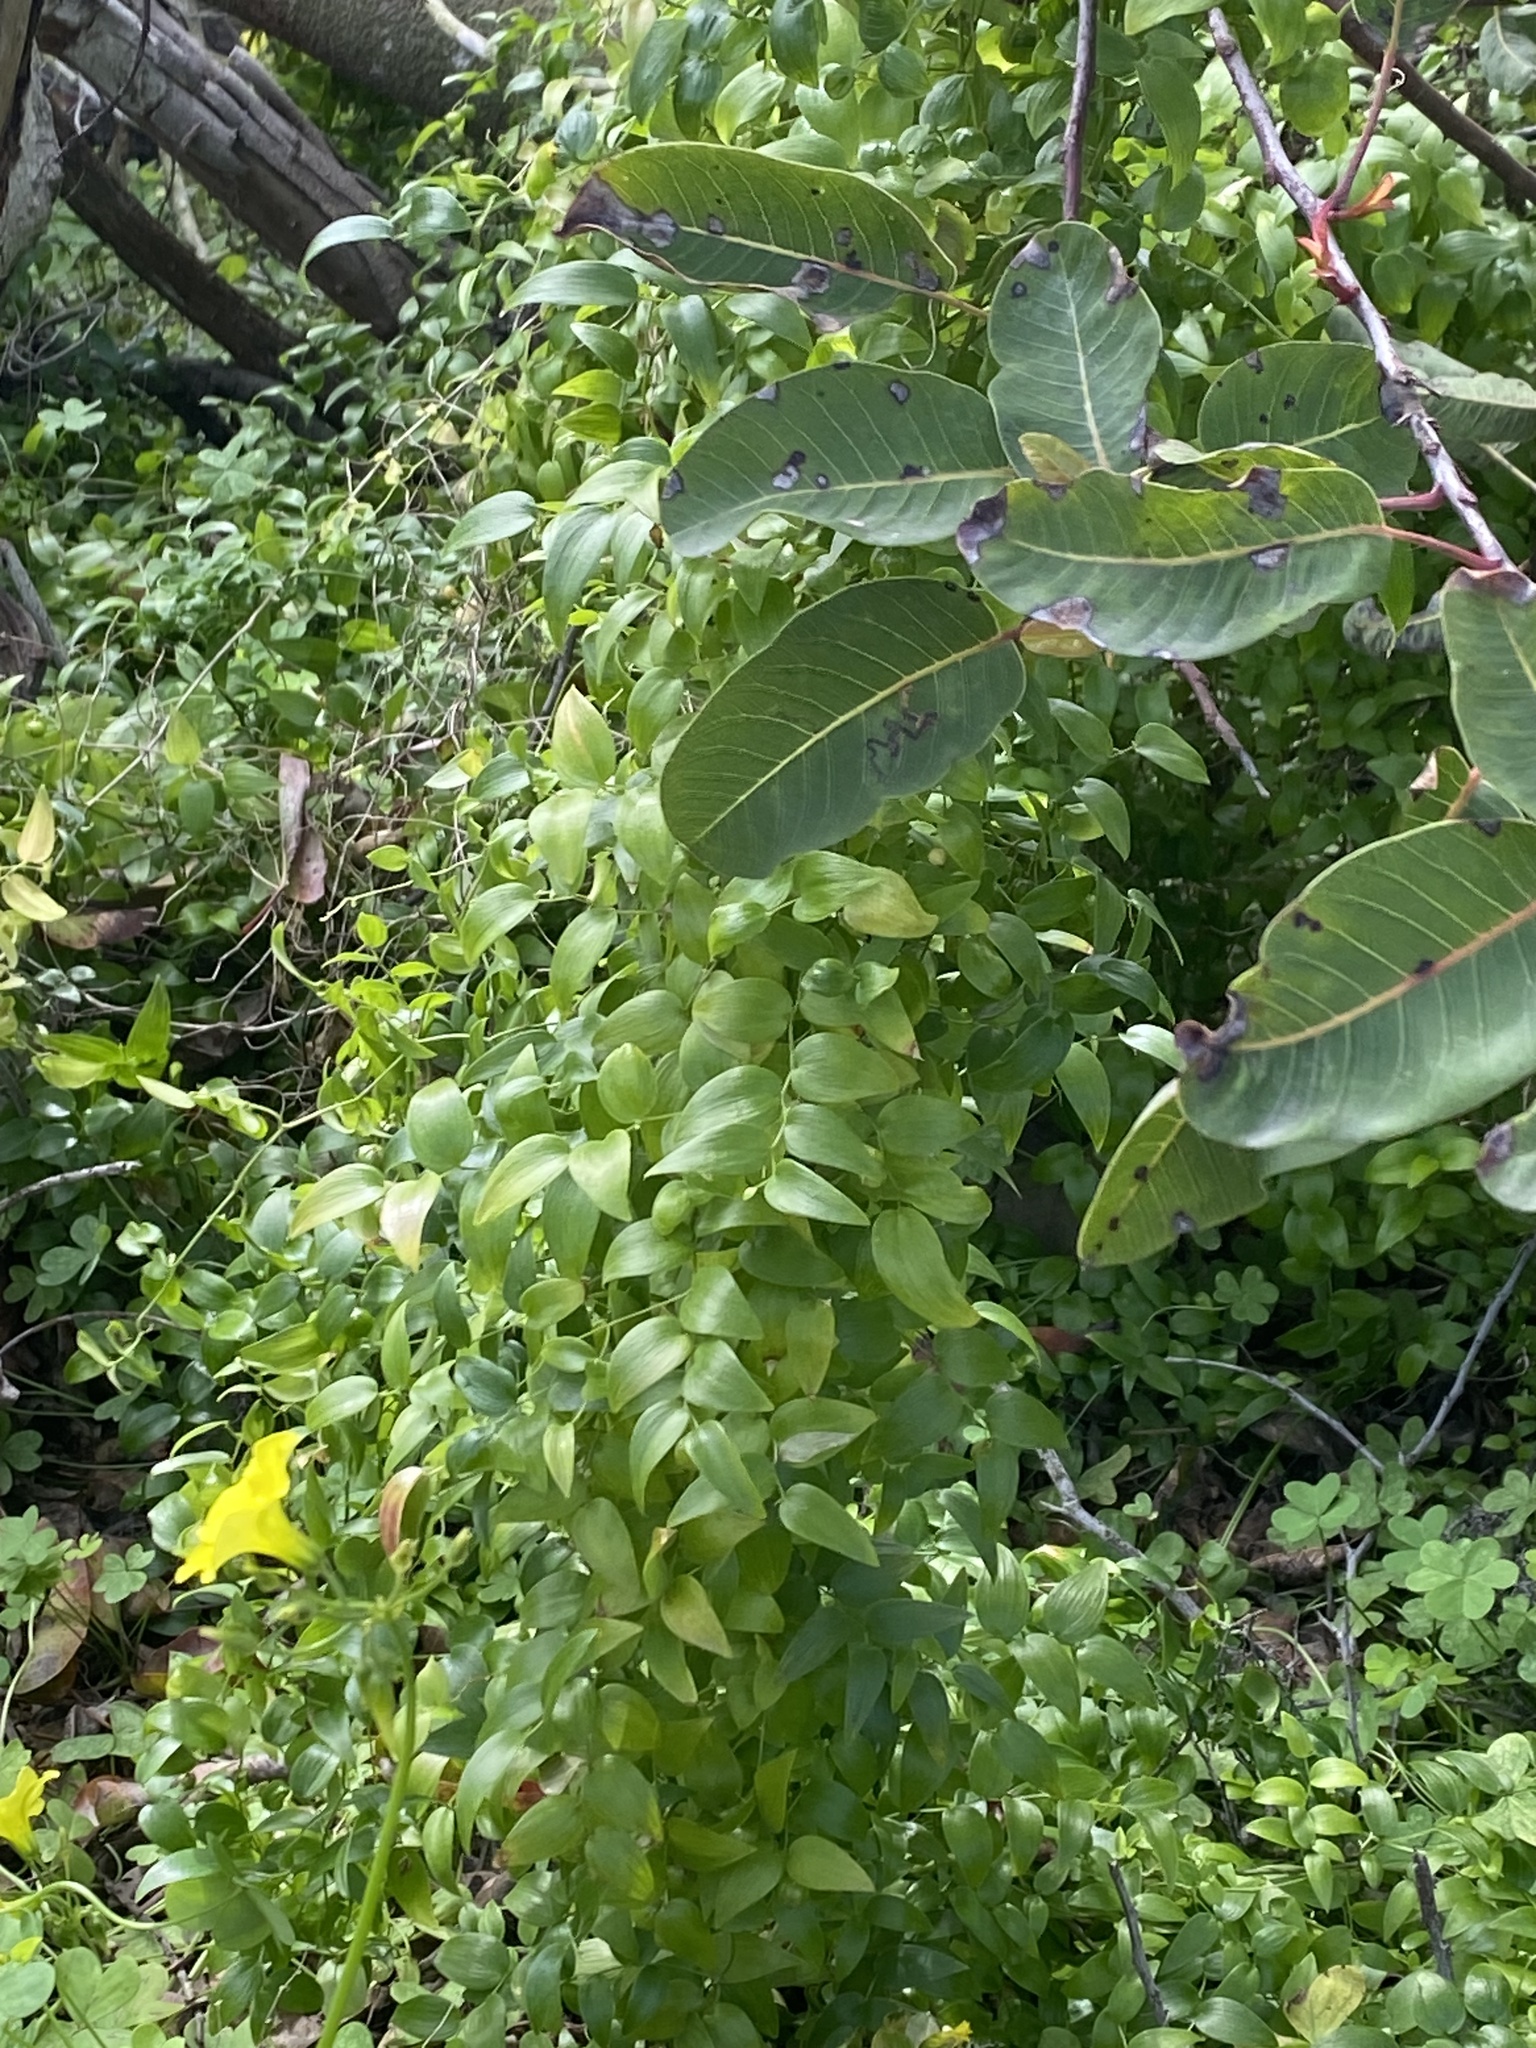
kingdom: Plantae
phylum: Tracheophyta
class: Liliopsida
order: Asparagales
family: Asparagaceae
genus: Asparagus
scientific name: Asparagus asparagoides
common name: African asparagus fern
